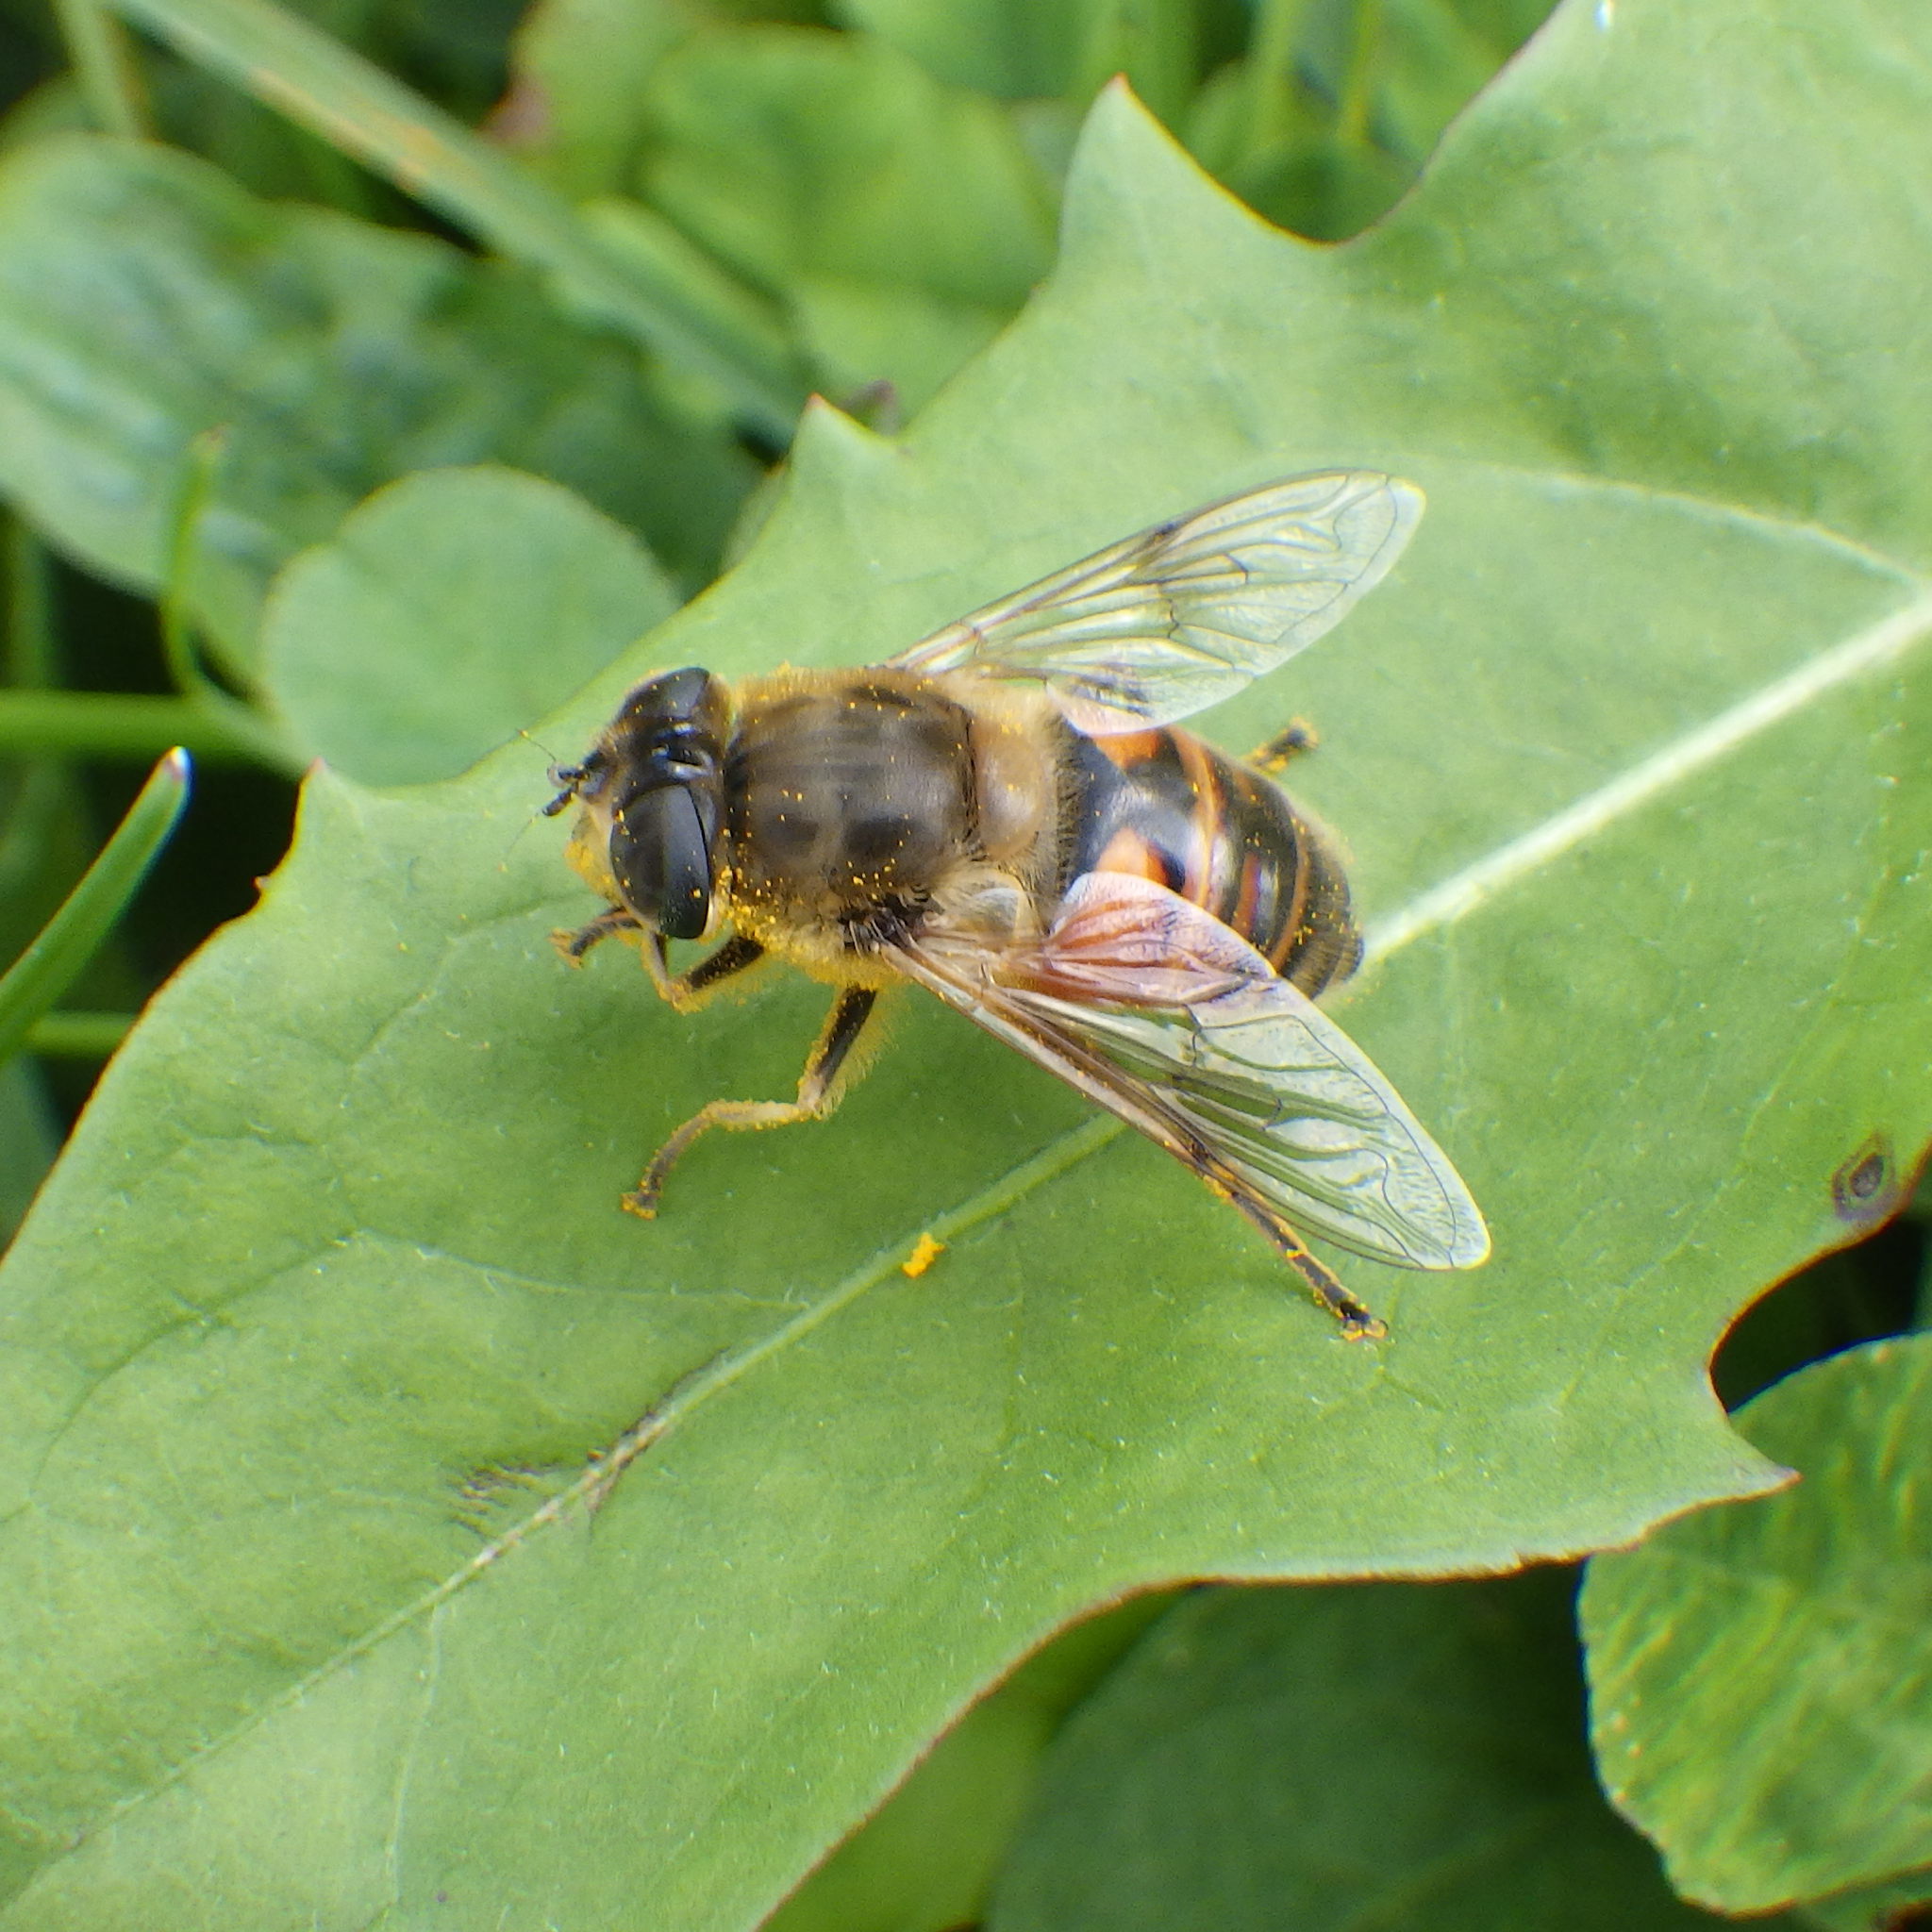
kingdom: Animalia
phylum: Arthropoda
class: Insecta
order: Diptera
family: Syrphidae
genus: Eristalis
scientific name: Eristalis tenax
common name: Drone fly
